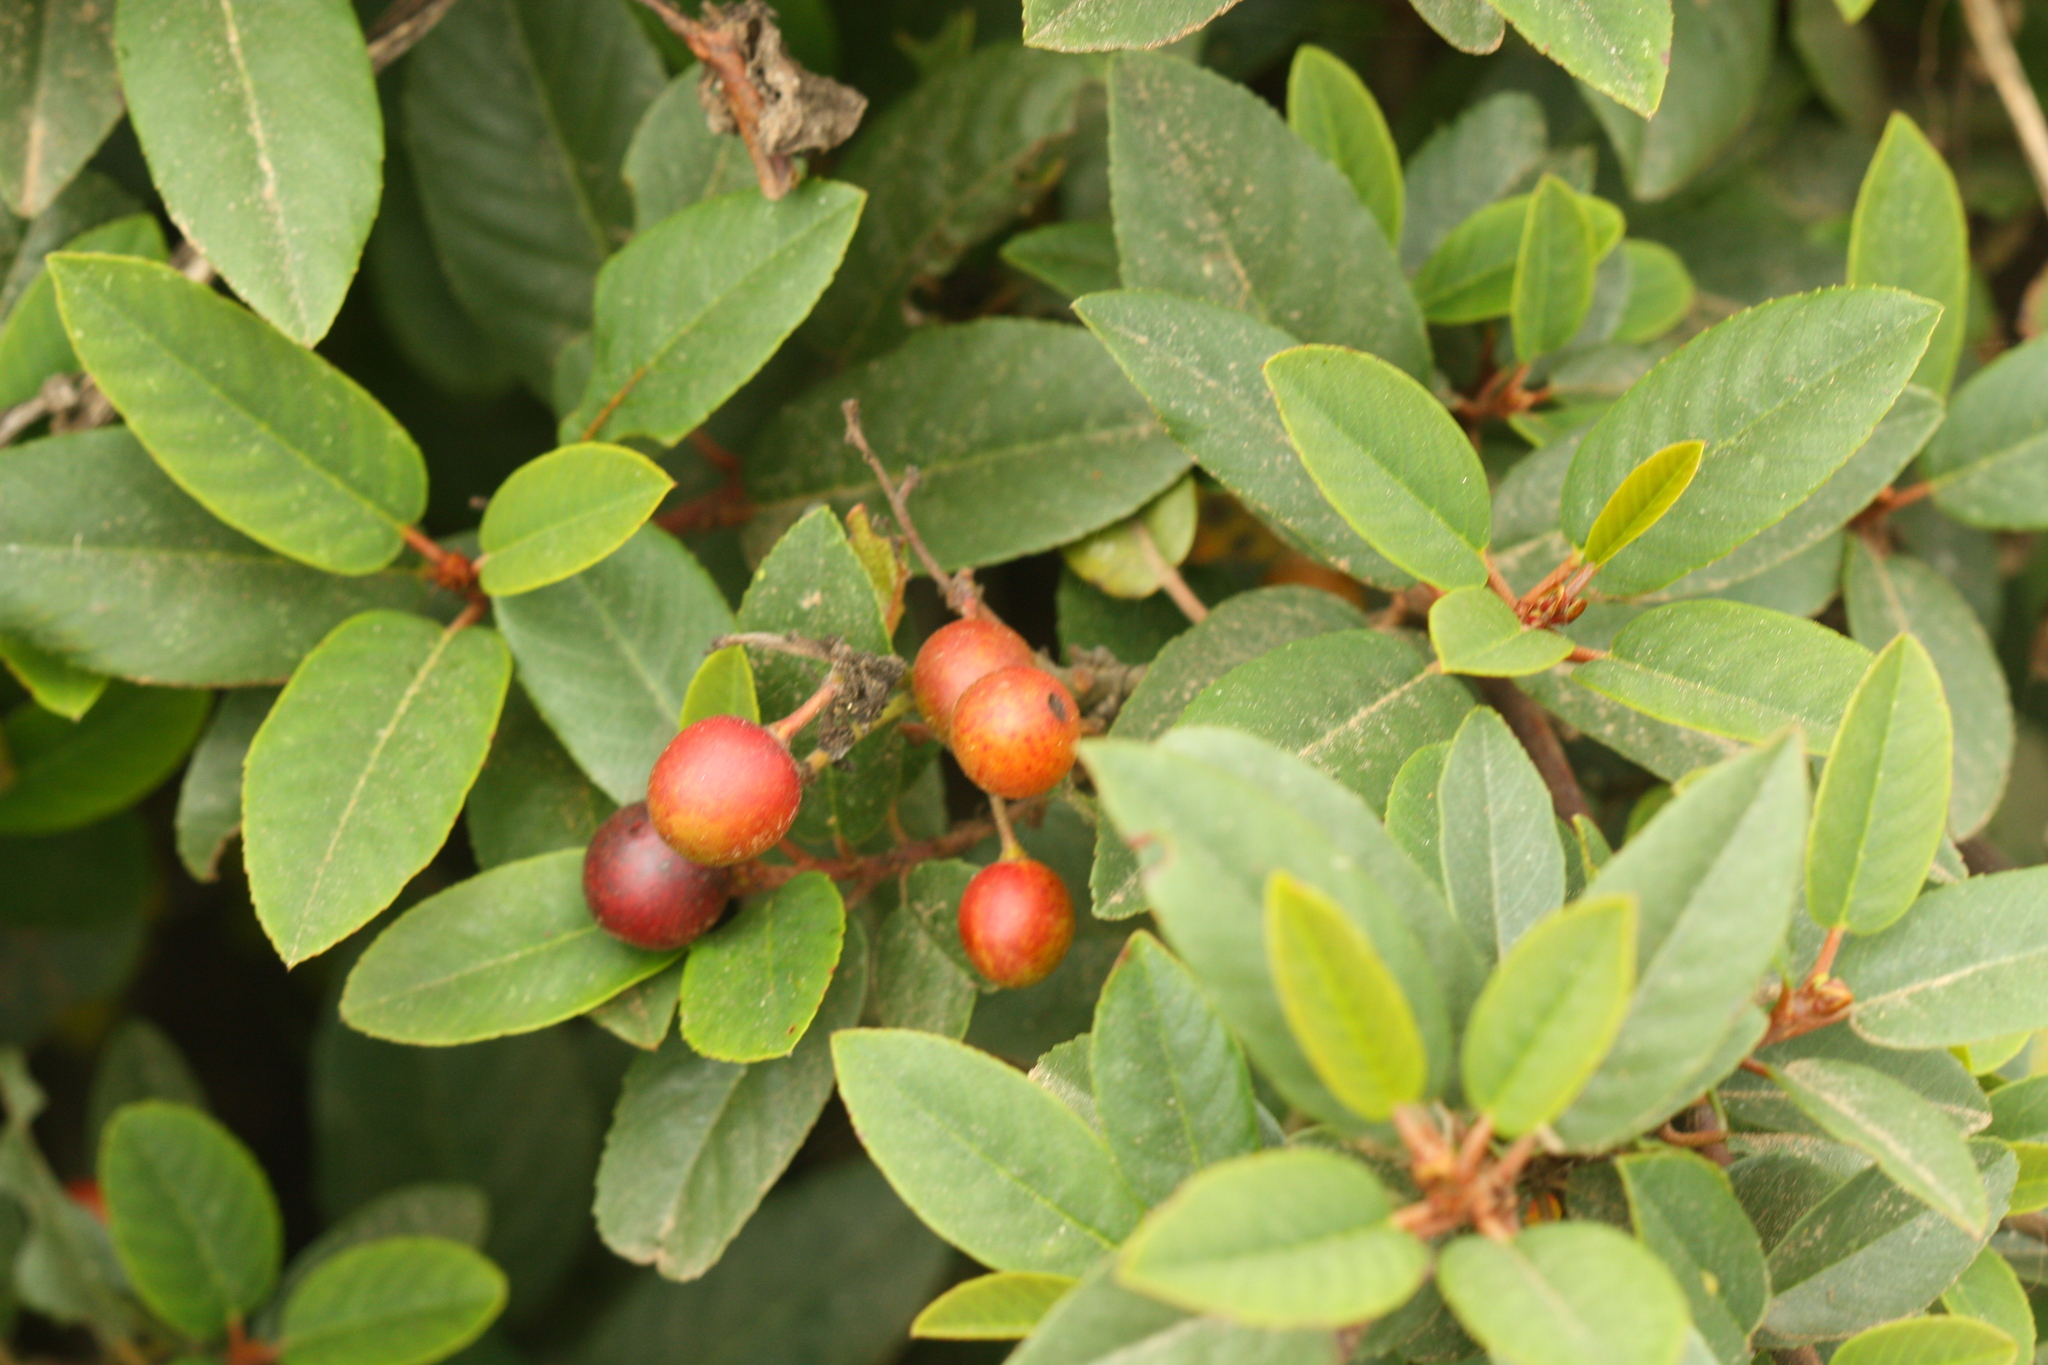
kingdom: Plantae
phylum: Tracheophyta
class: Magnoliopsida
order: Rosales
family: Rhamnaceae
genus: Frangula
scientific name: Frangula californica
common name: California buckthorn
